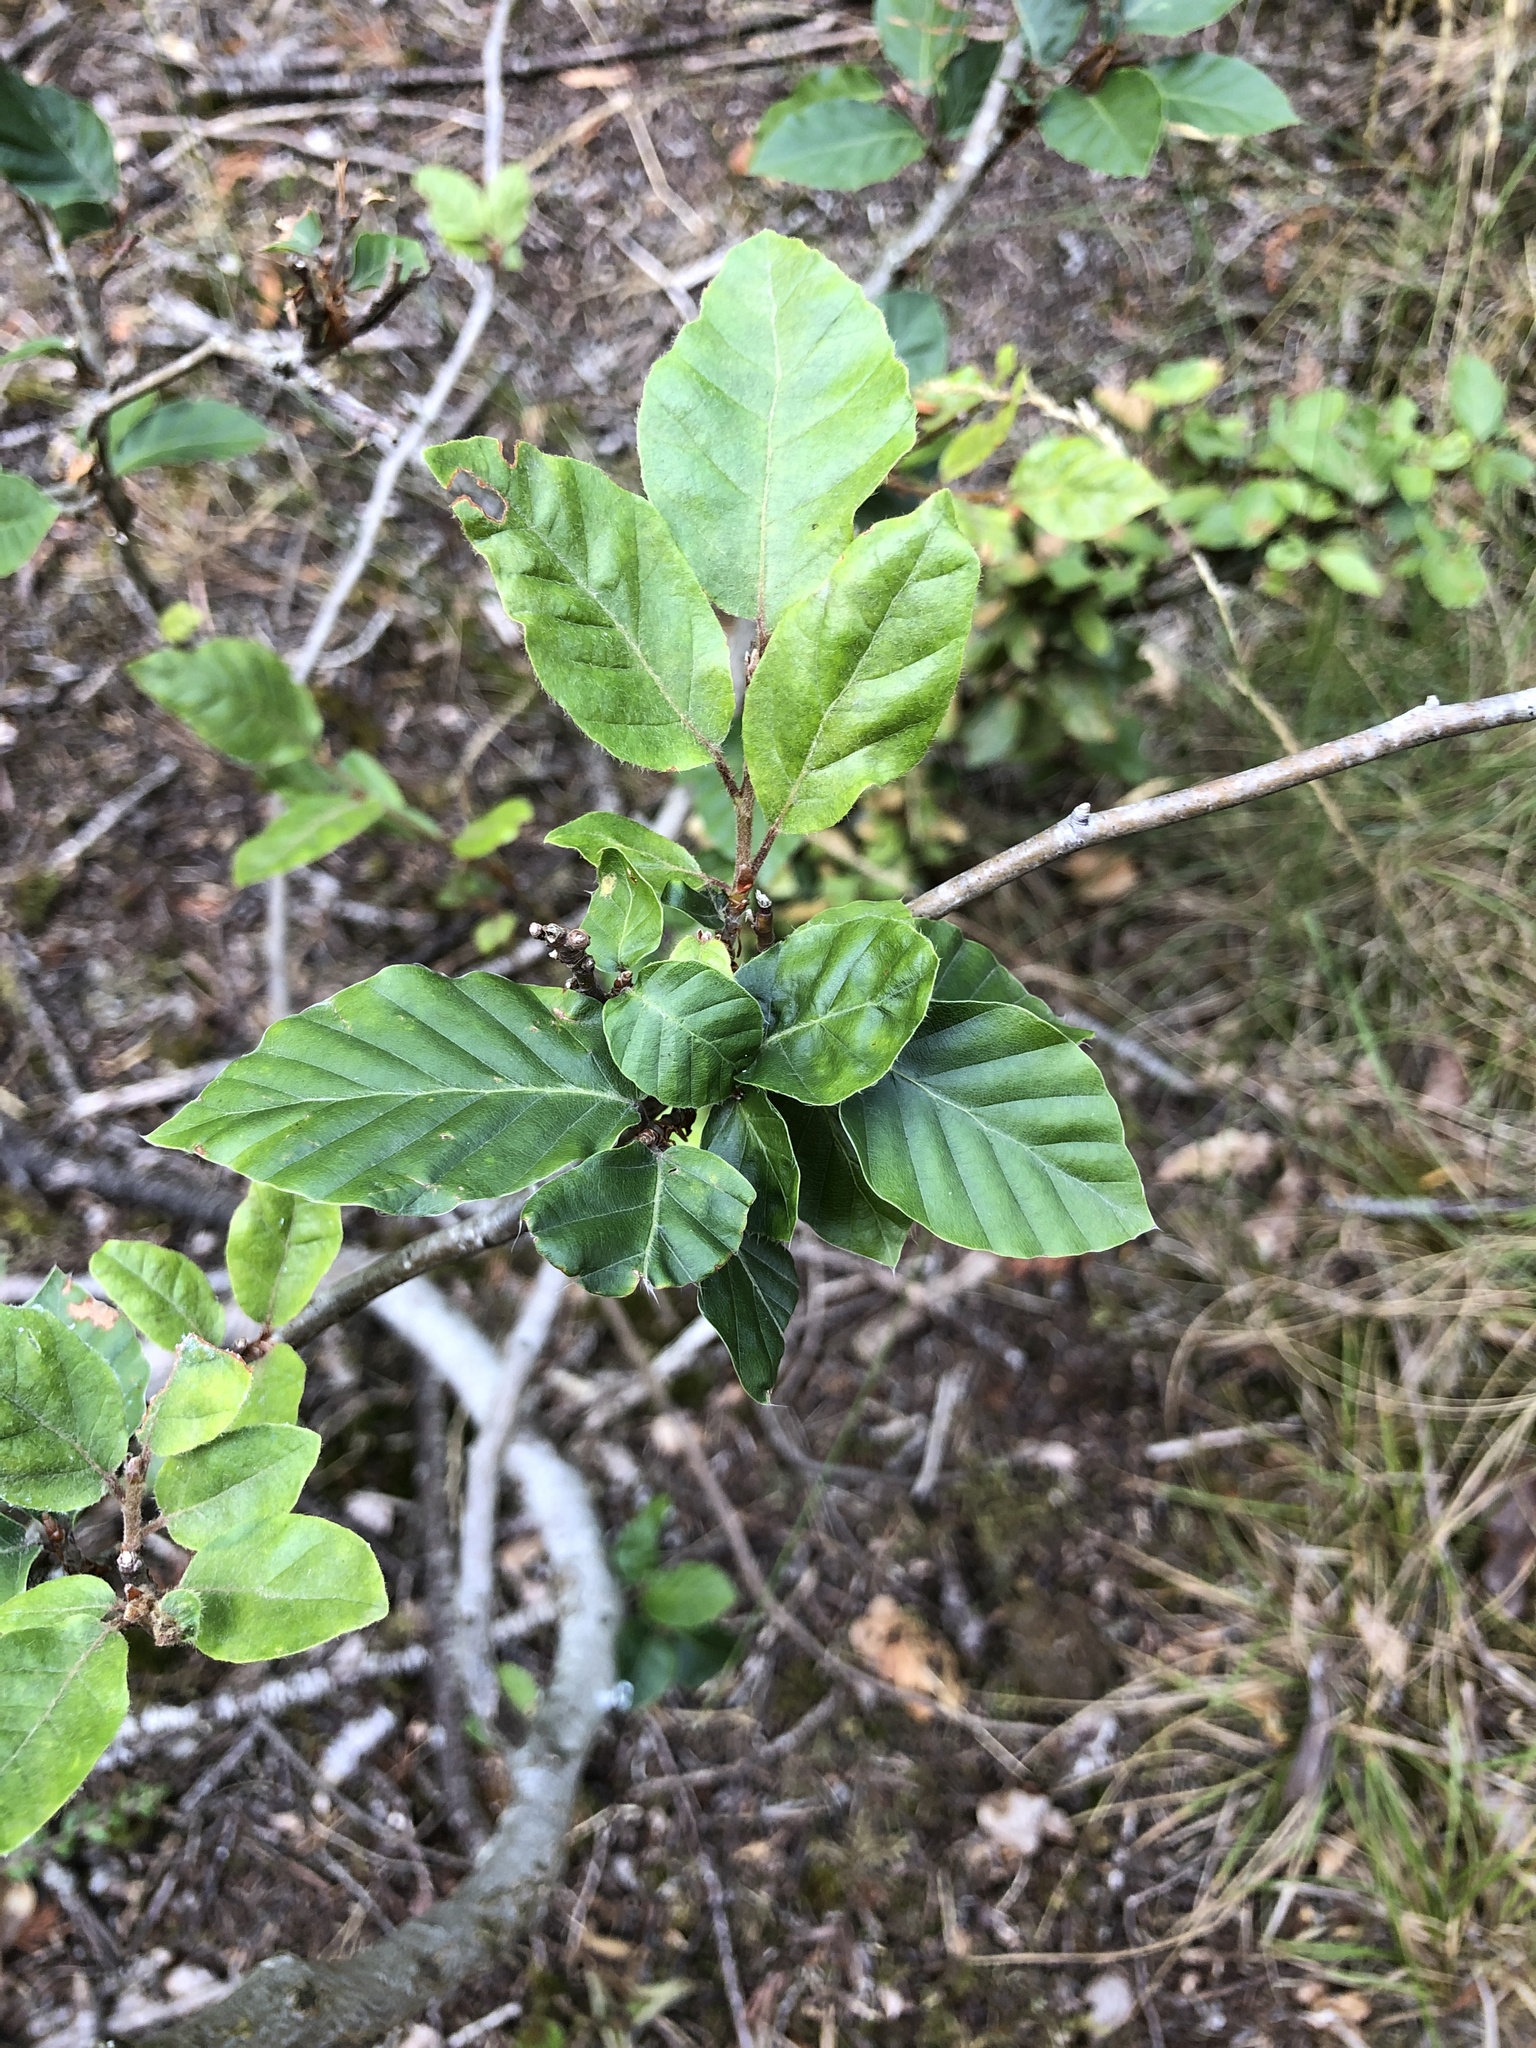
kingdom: Plantae
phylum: Tracheophyta
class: Magnoliopsida
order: Fagales
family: Fagaceae
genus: Fagus
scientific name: Fagus sylvatica
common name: Beech
